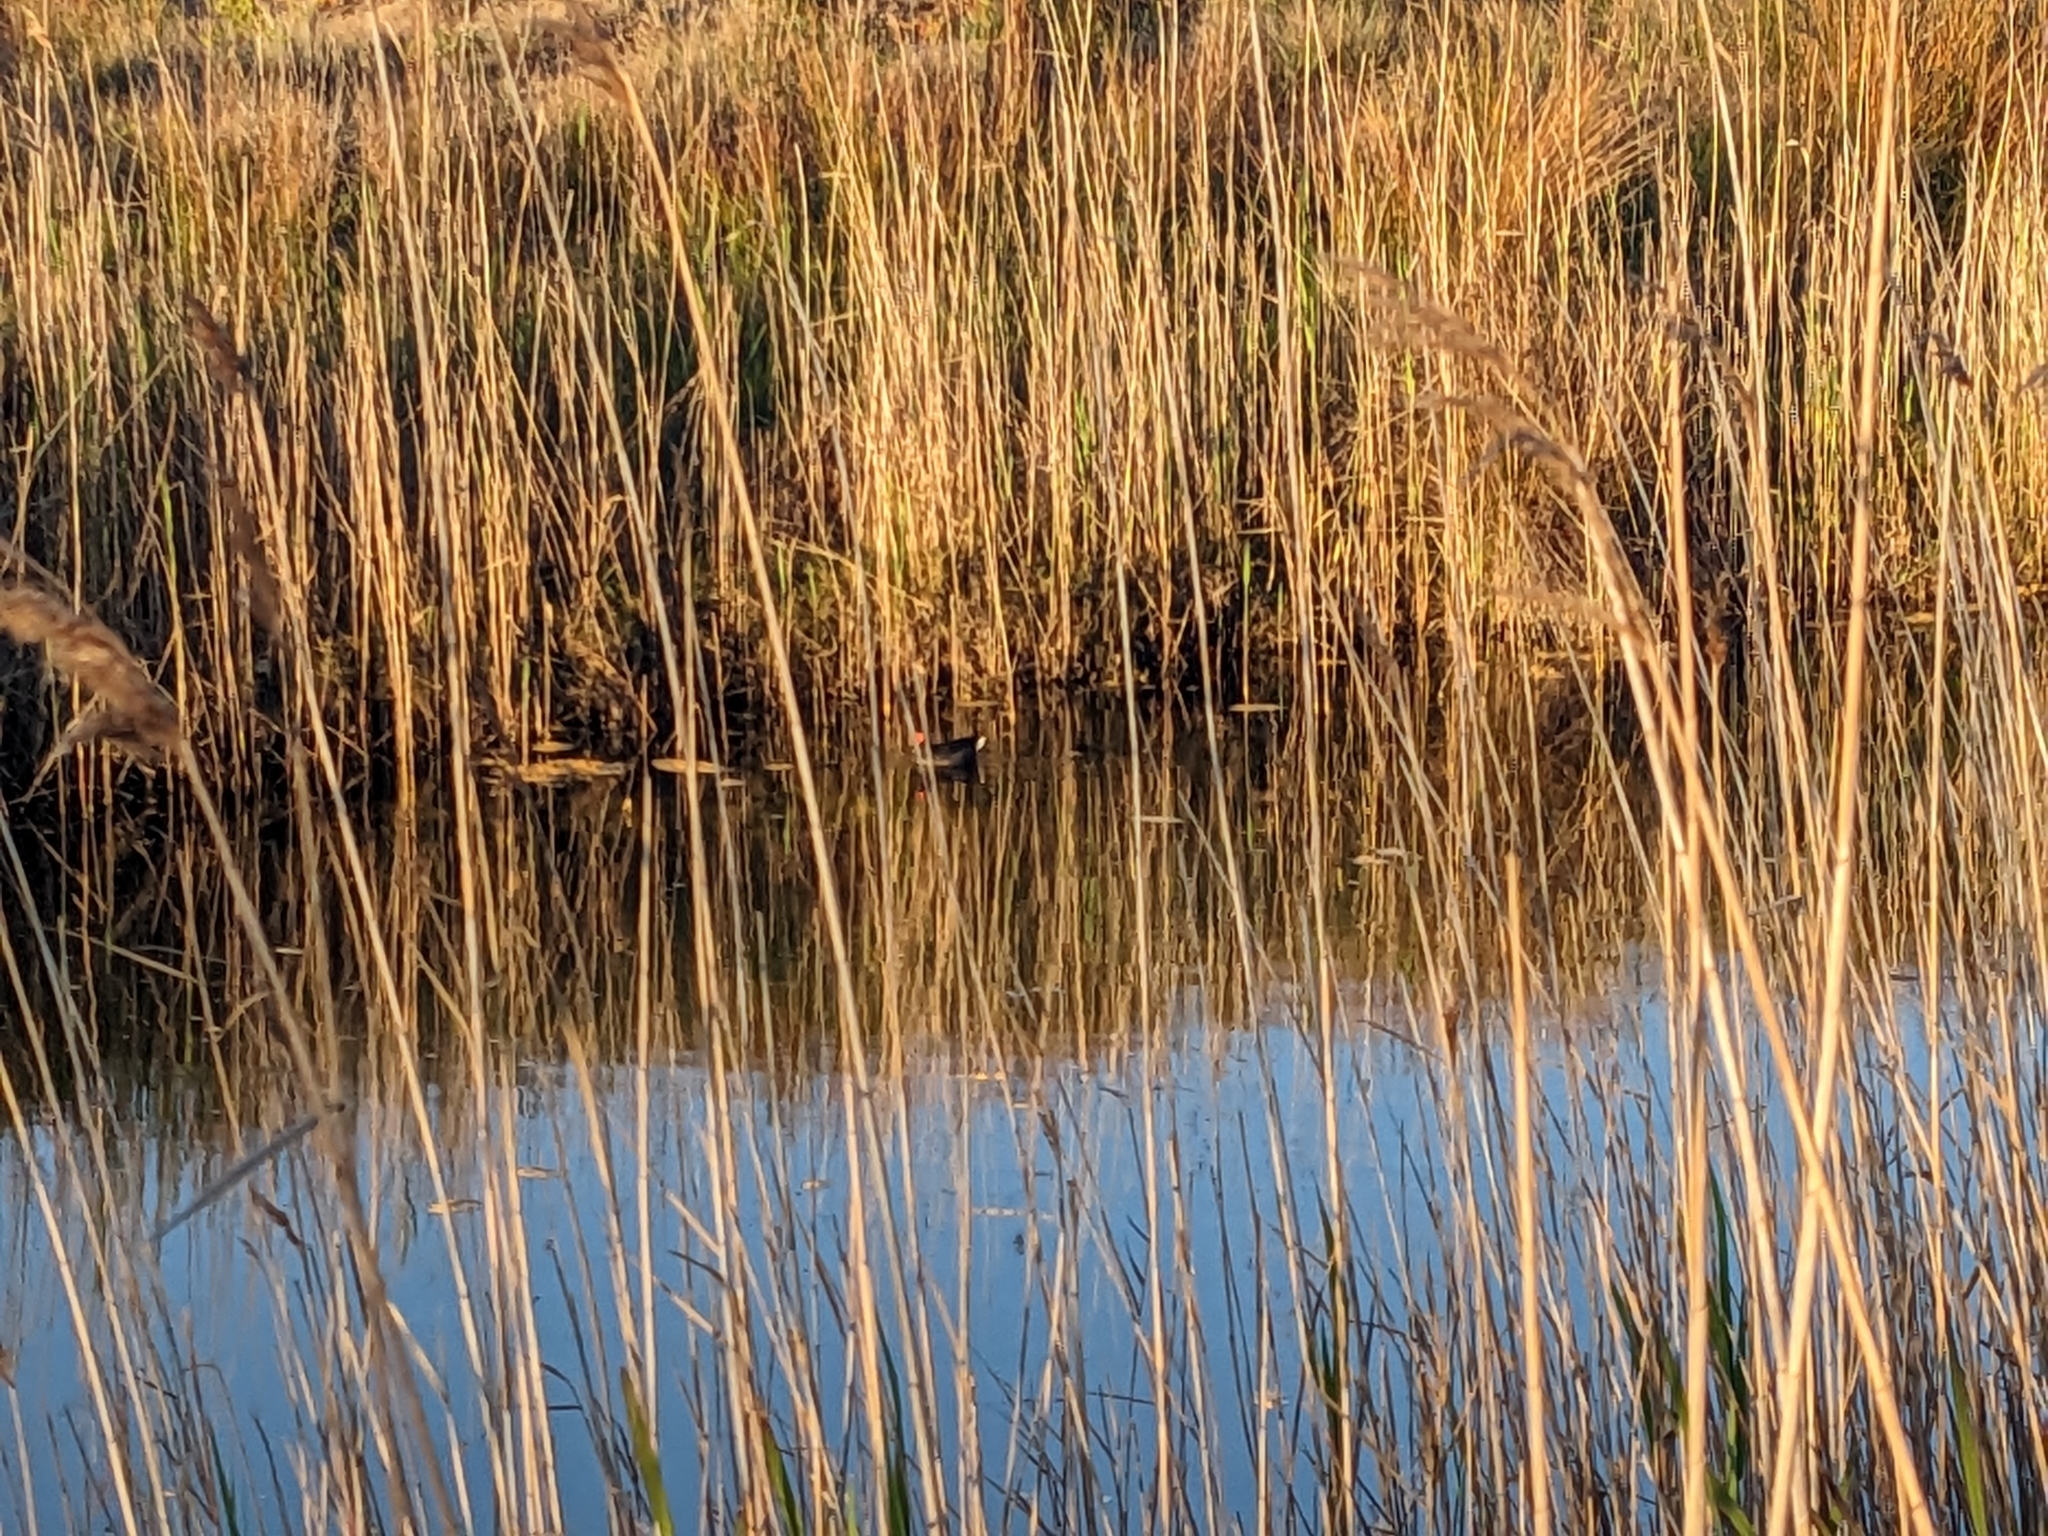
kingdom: Animalia
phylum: Chordata
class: Aves
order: Gruiformes
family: Rallidae
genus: Gallinula
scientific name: Gallinula tenebrosa
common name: Dusky moorhen
